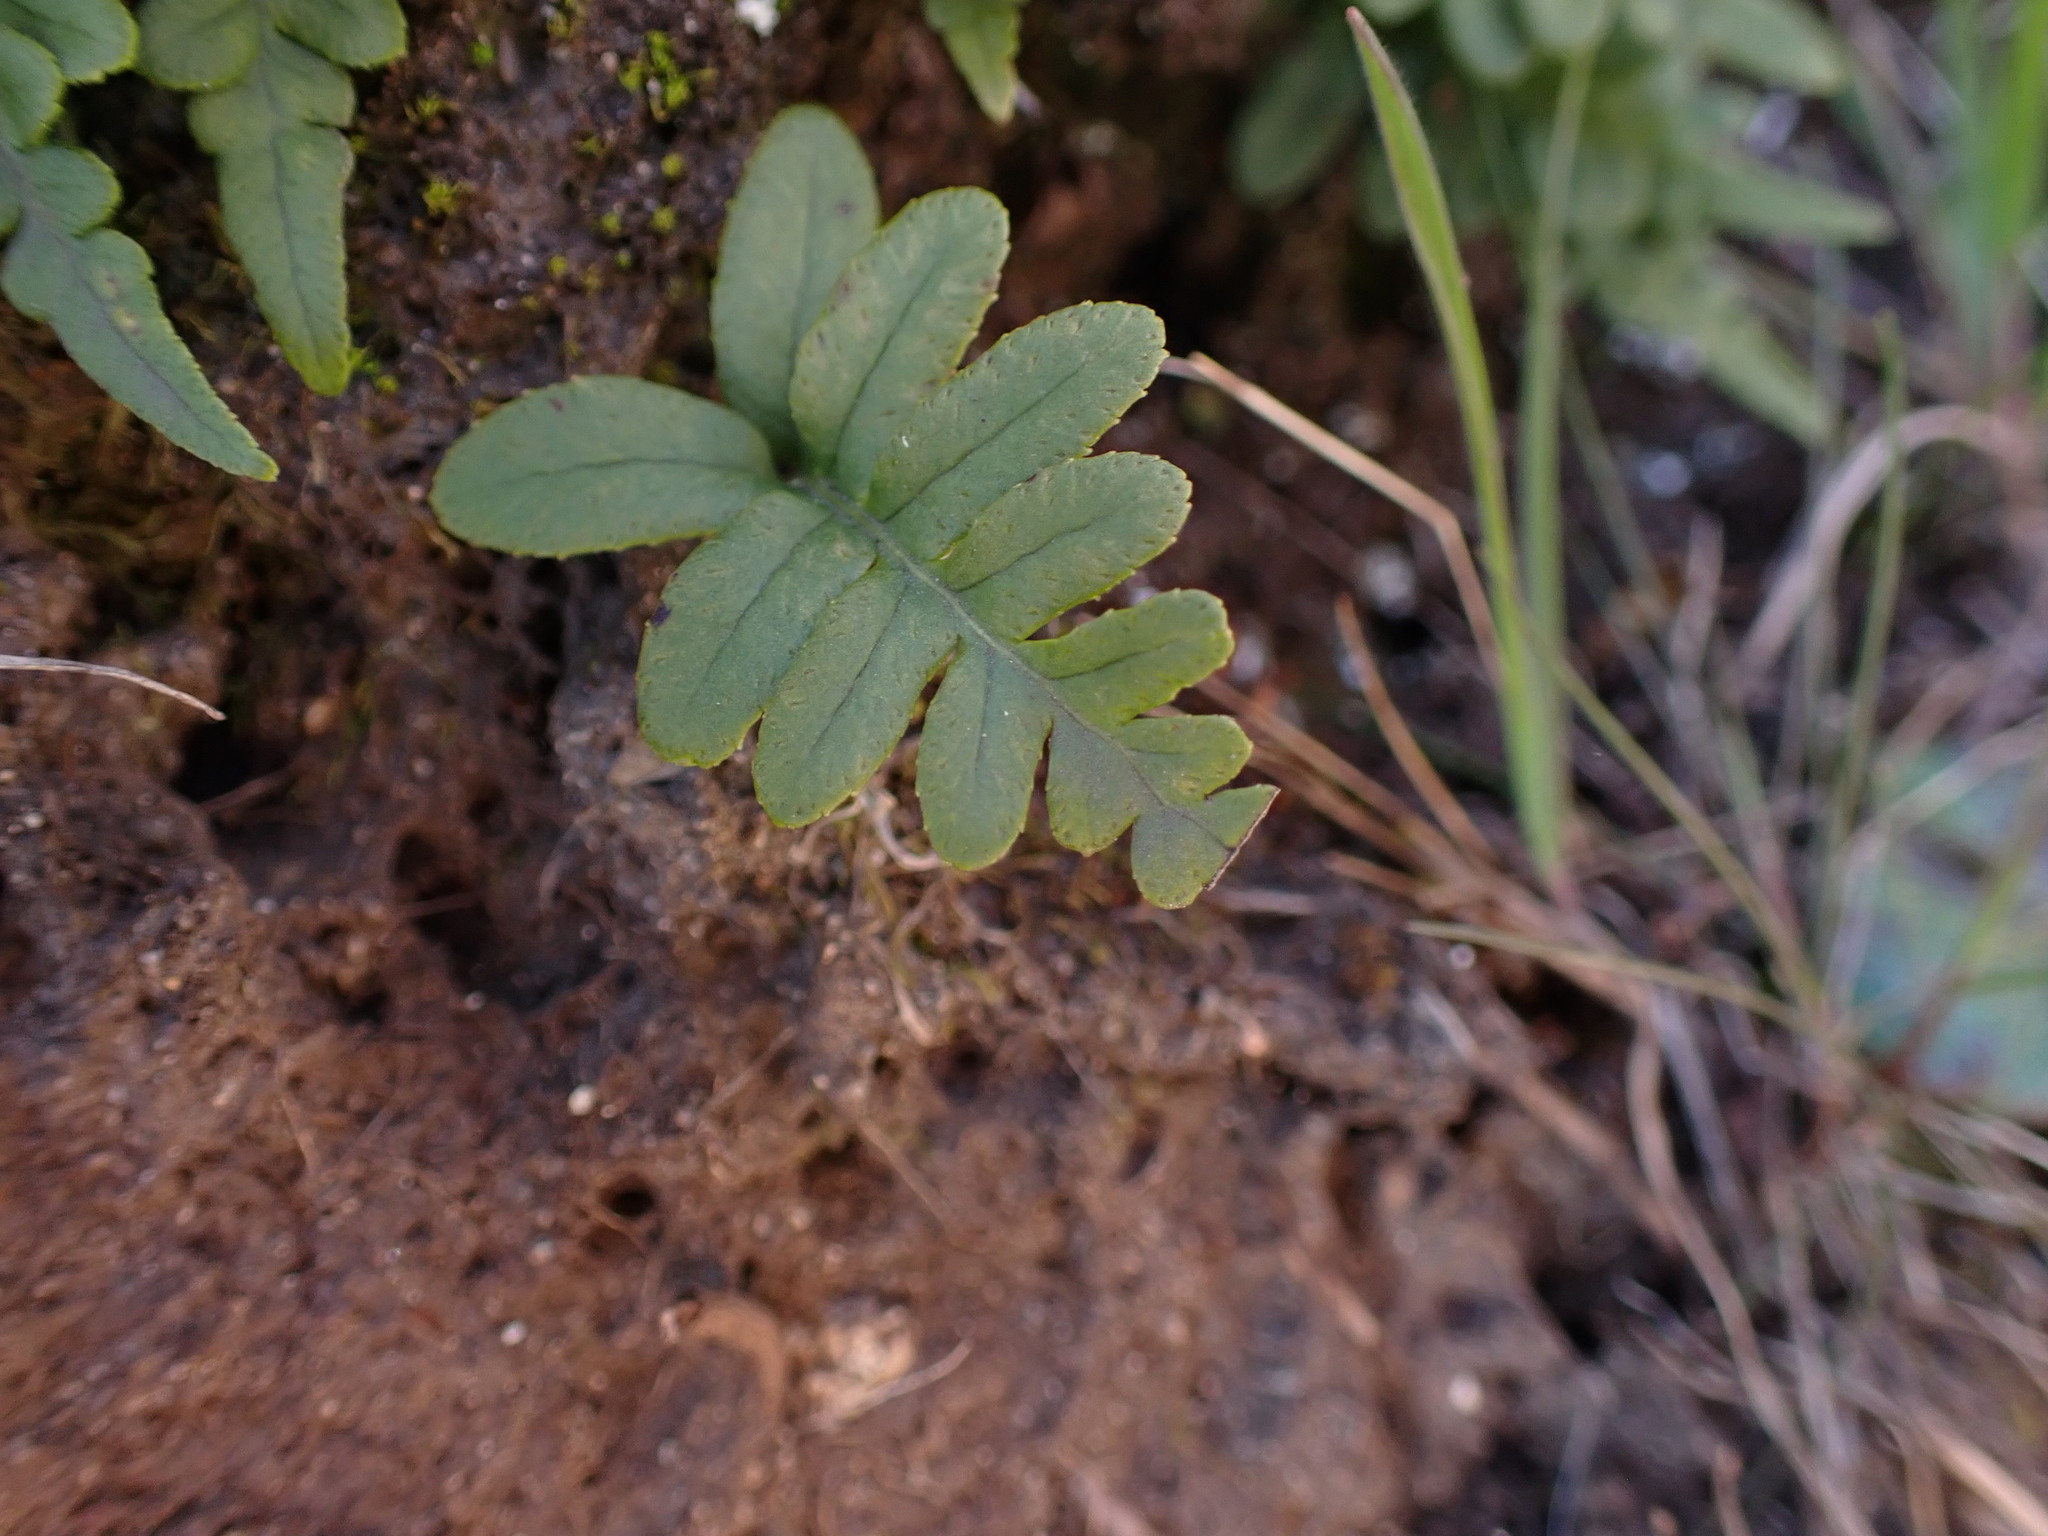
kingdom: Plantae
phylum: Tracheophyta
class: Polypodiopsida
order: Polypodiales
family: Polypodiaceae
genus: Polypodium
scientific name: Polypodium glycyrrhiza
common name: Licorice fern
